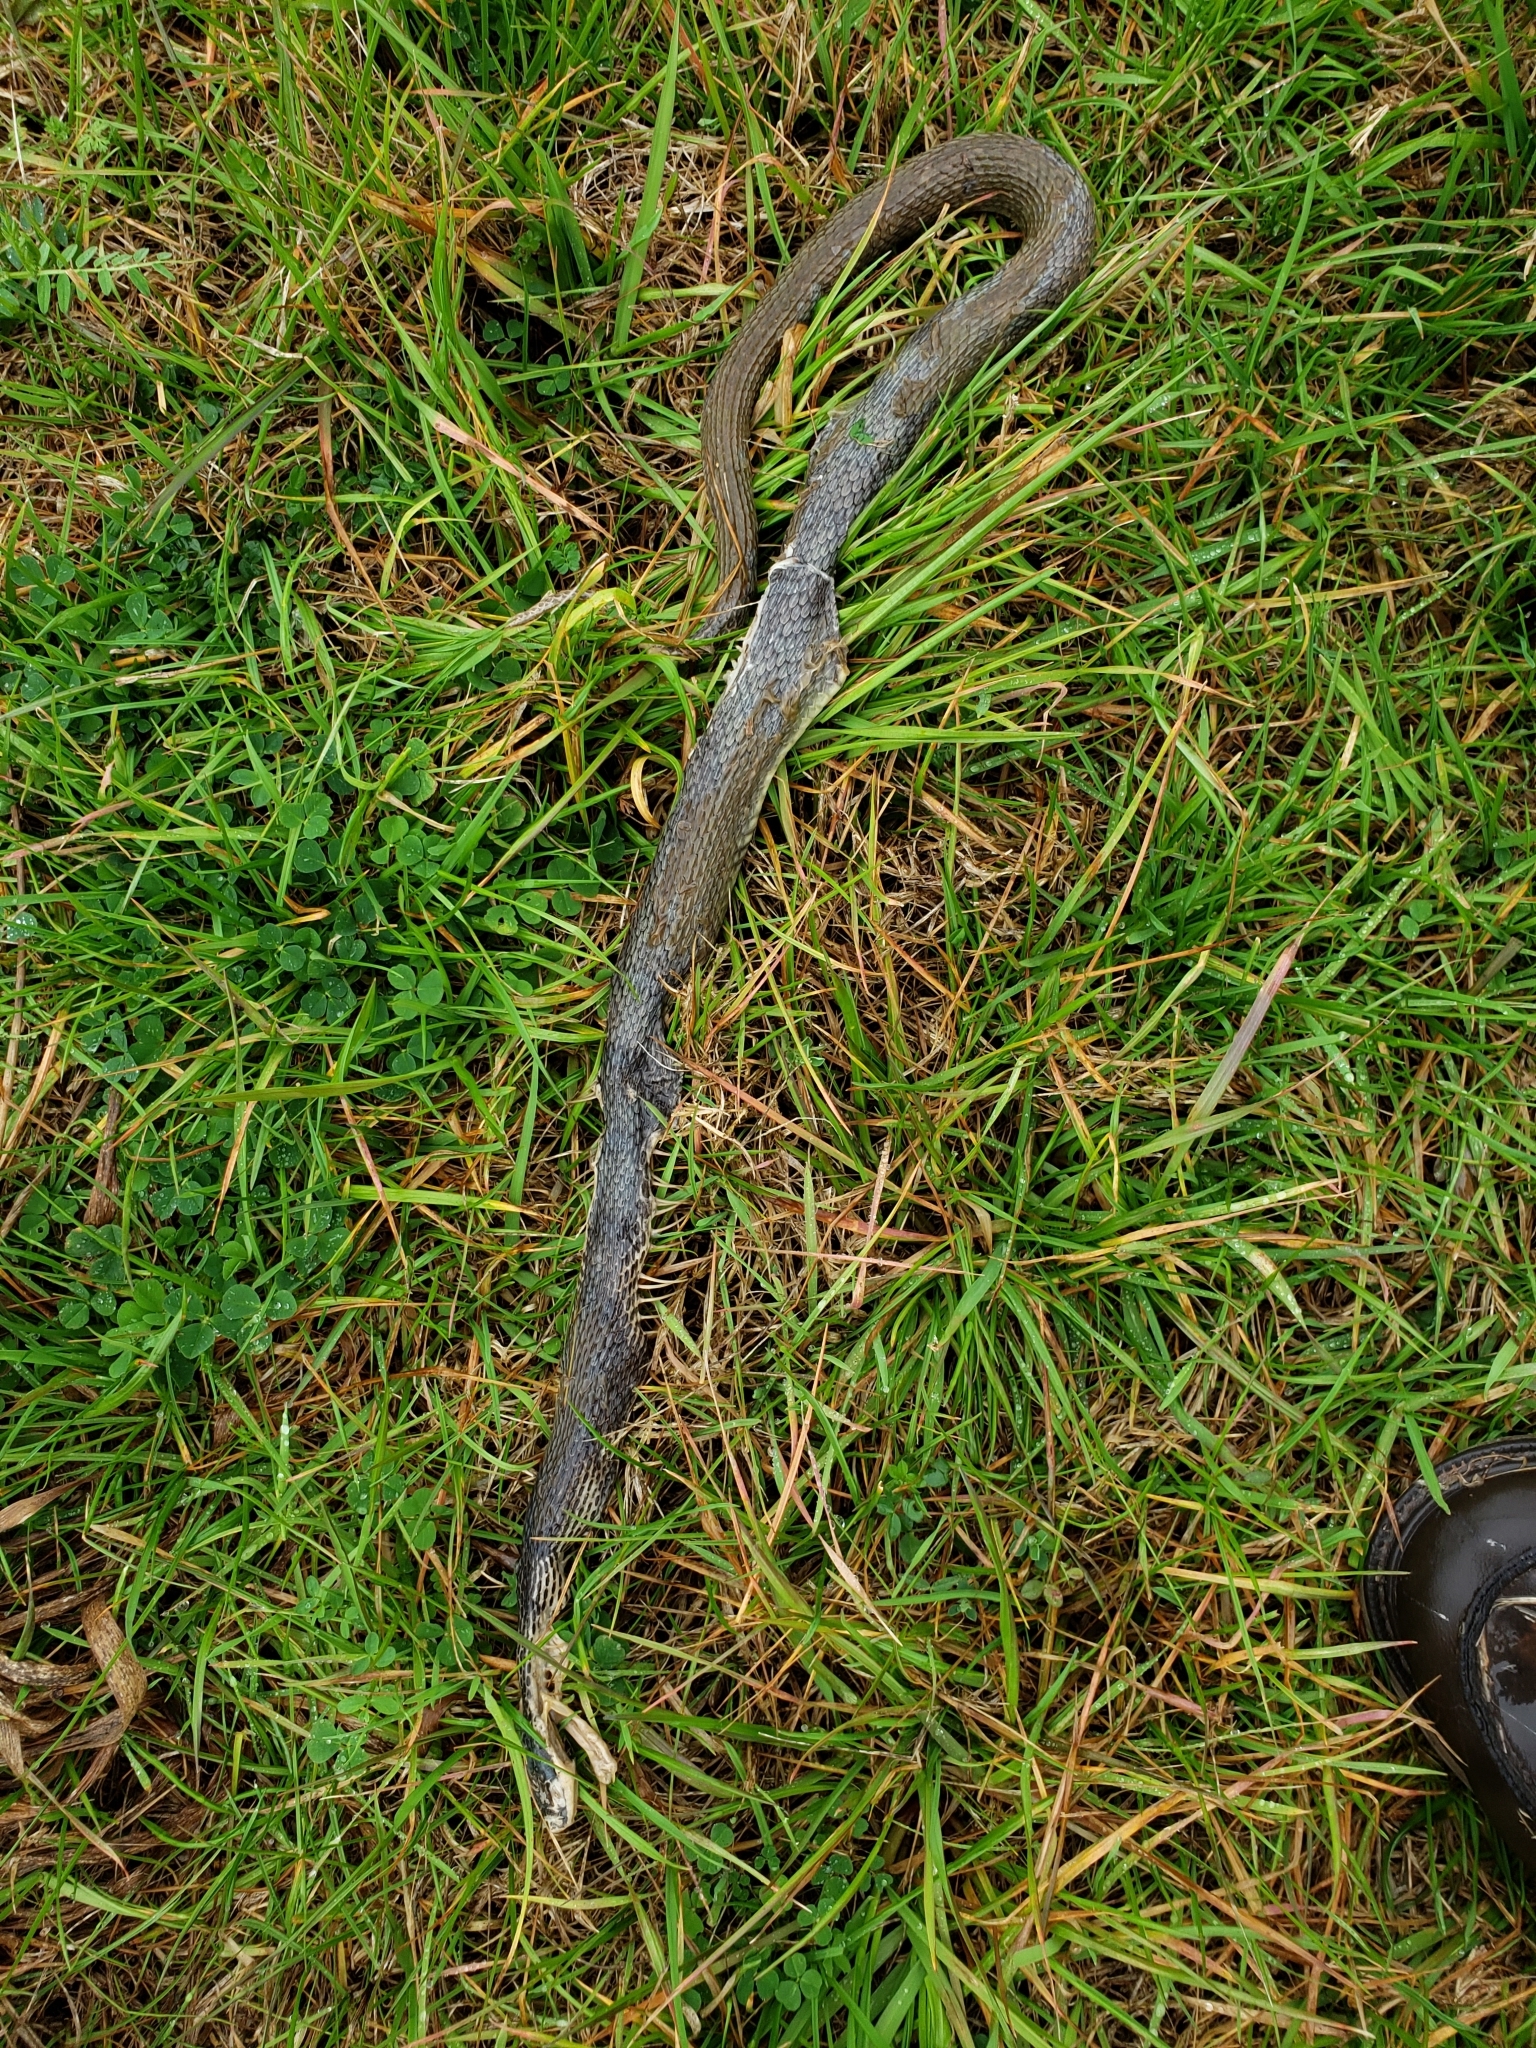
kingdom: Animalia
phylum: Chordata
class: Squamata
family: Colubridae
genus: Nerodia
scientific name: Nerodia erythrogaster
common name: Plainbelly water snake
